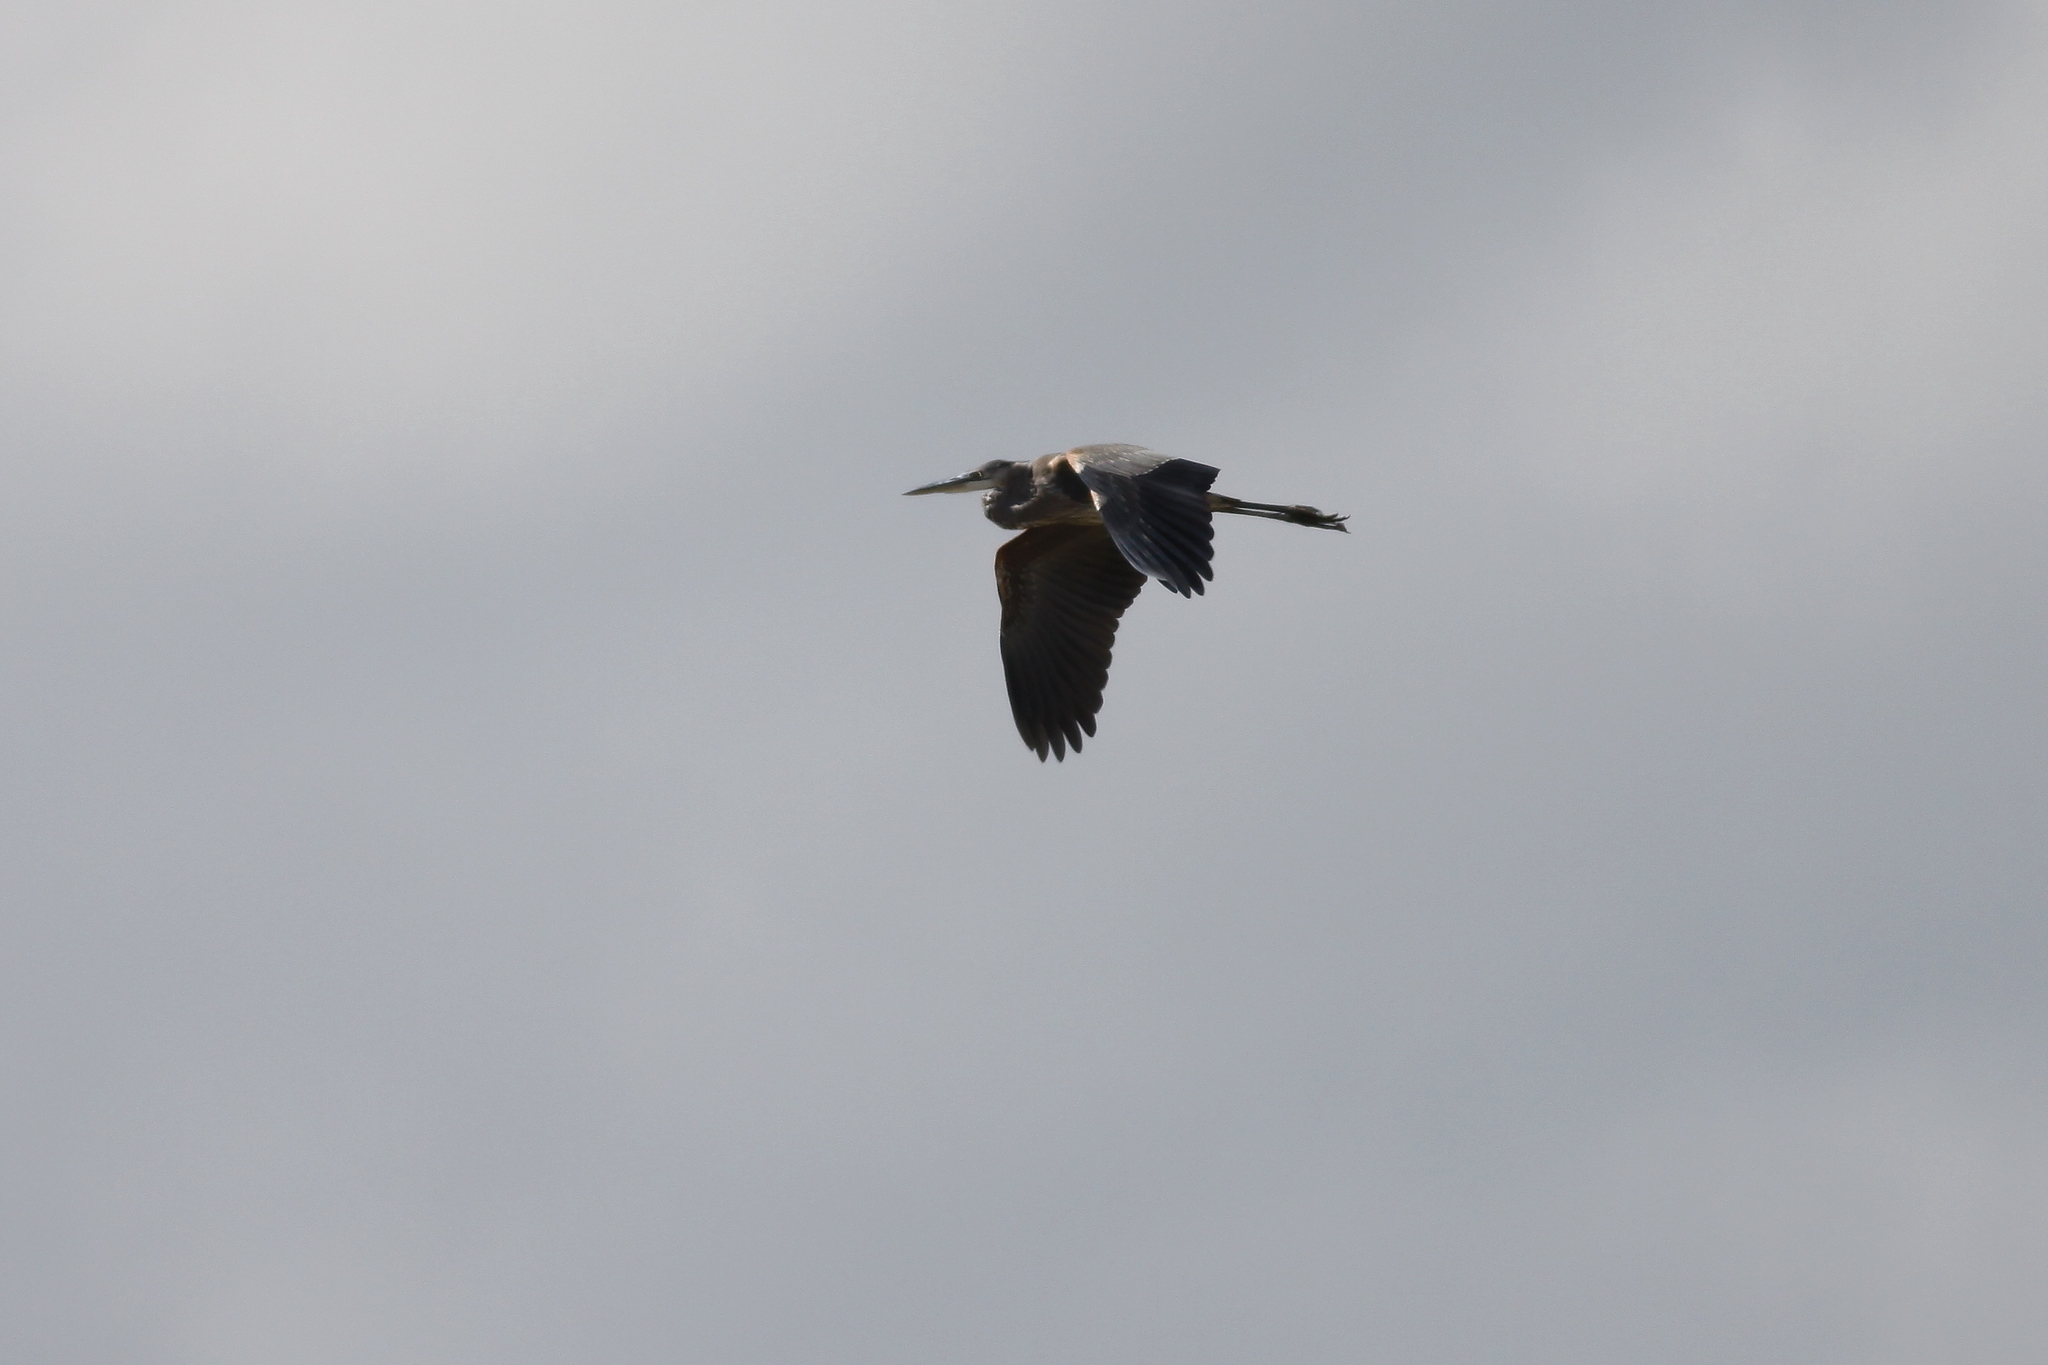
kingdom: Animalia
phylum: Chordata
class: Aves
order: Pelecaniformes
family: Ardeidae
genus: Ardea
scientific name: Ardea herodias
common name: Great blue heron
